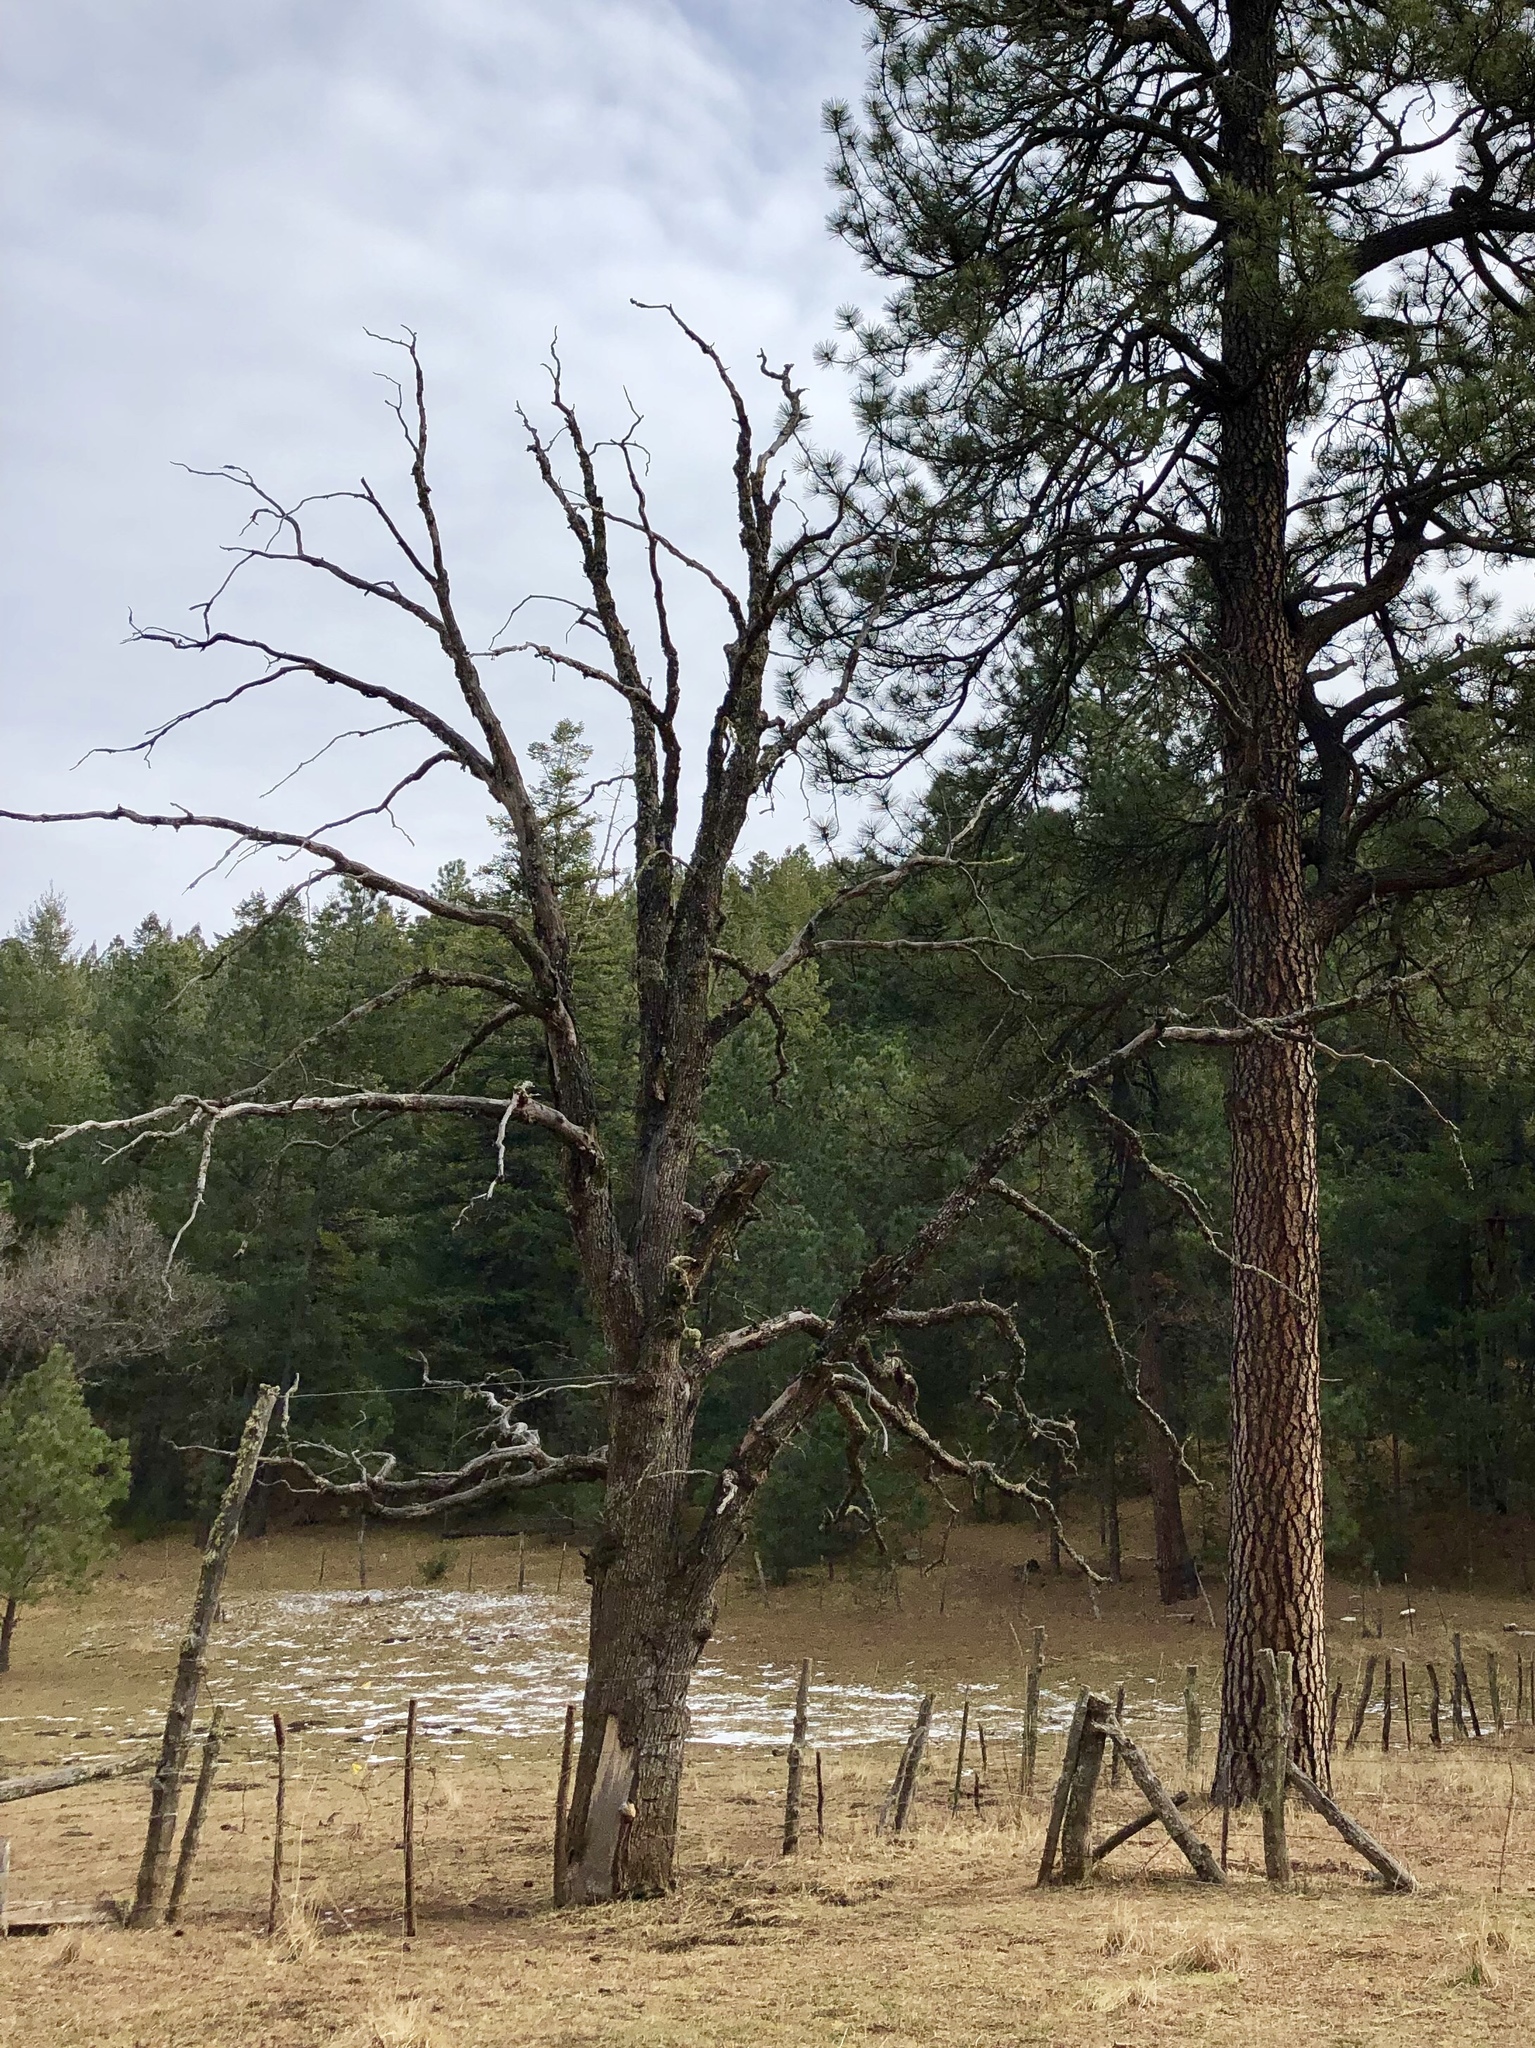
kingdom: Plantae
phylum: Tracheophyta
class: Magnoliopsida
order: Fagales
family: Fagaceae
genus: Quercus
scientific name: Quercus gambelii
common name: Gambel oak
